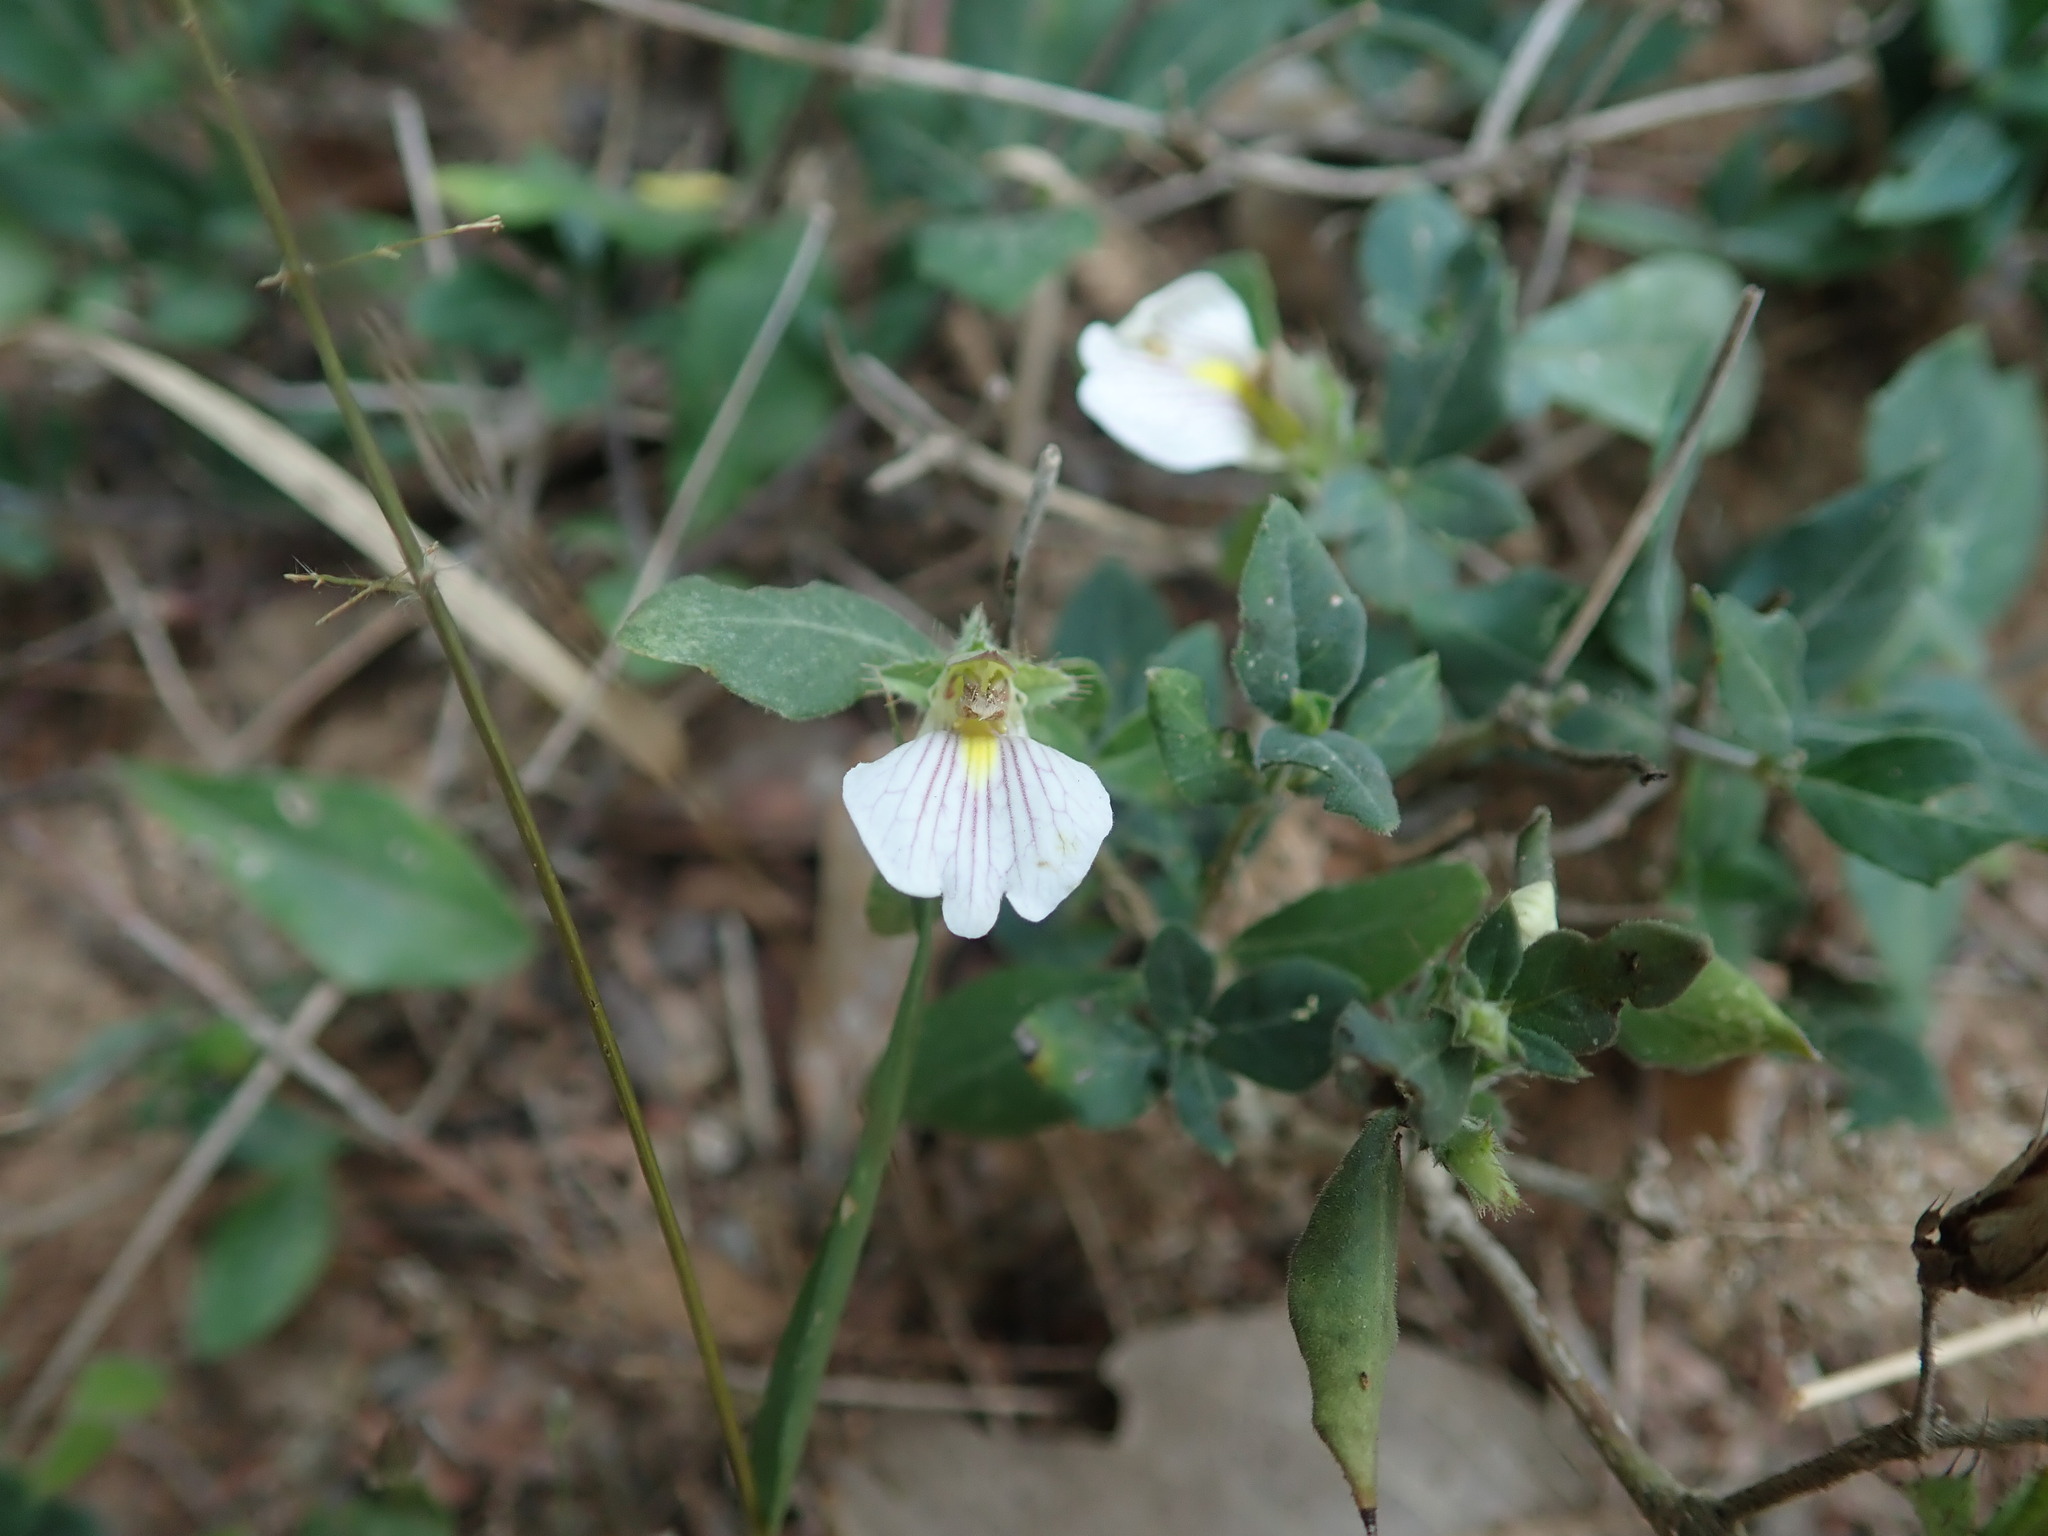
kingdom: Plantae
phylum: Tracheophyta
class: Magnoliopsida
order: Lamiales
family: Acanthaceae
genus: Blepharis
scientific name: Blepharis maderaspatensis
